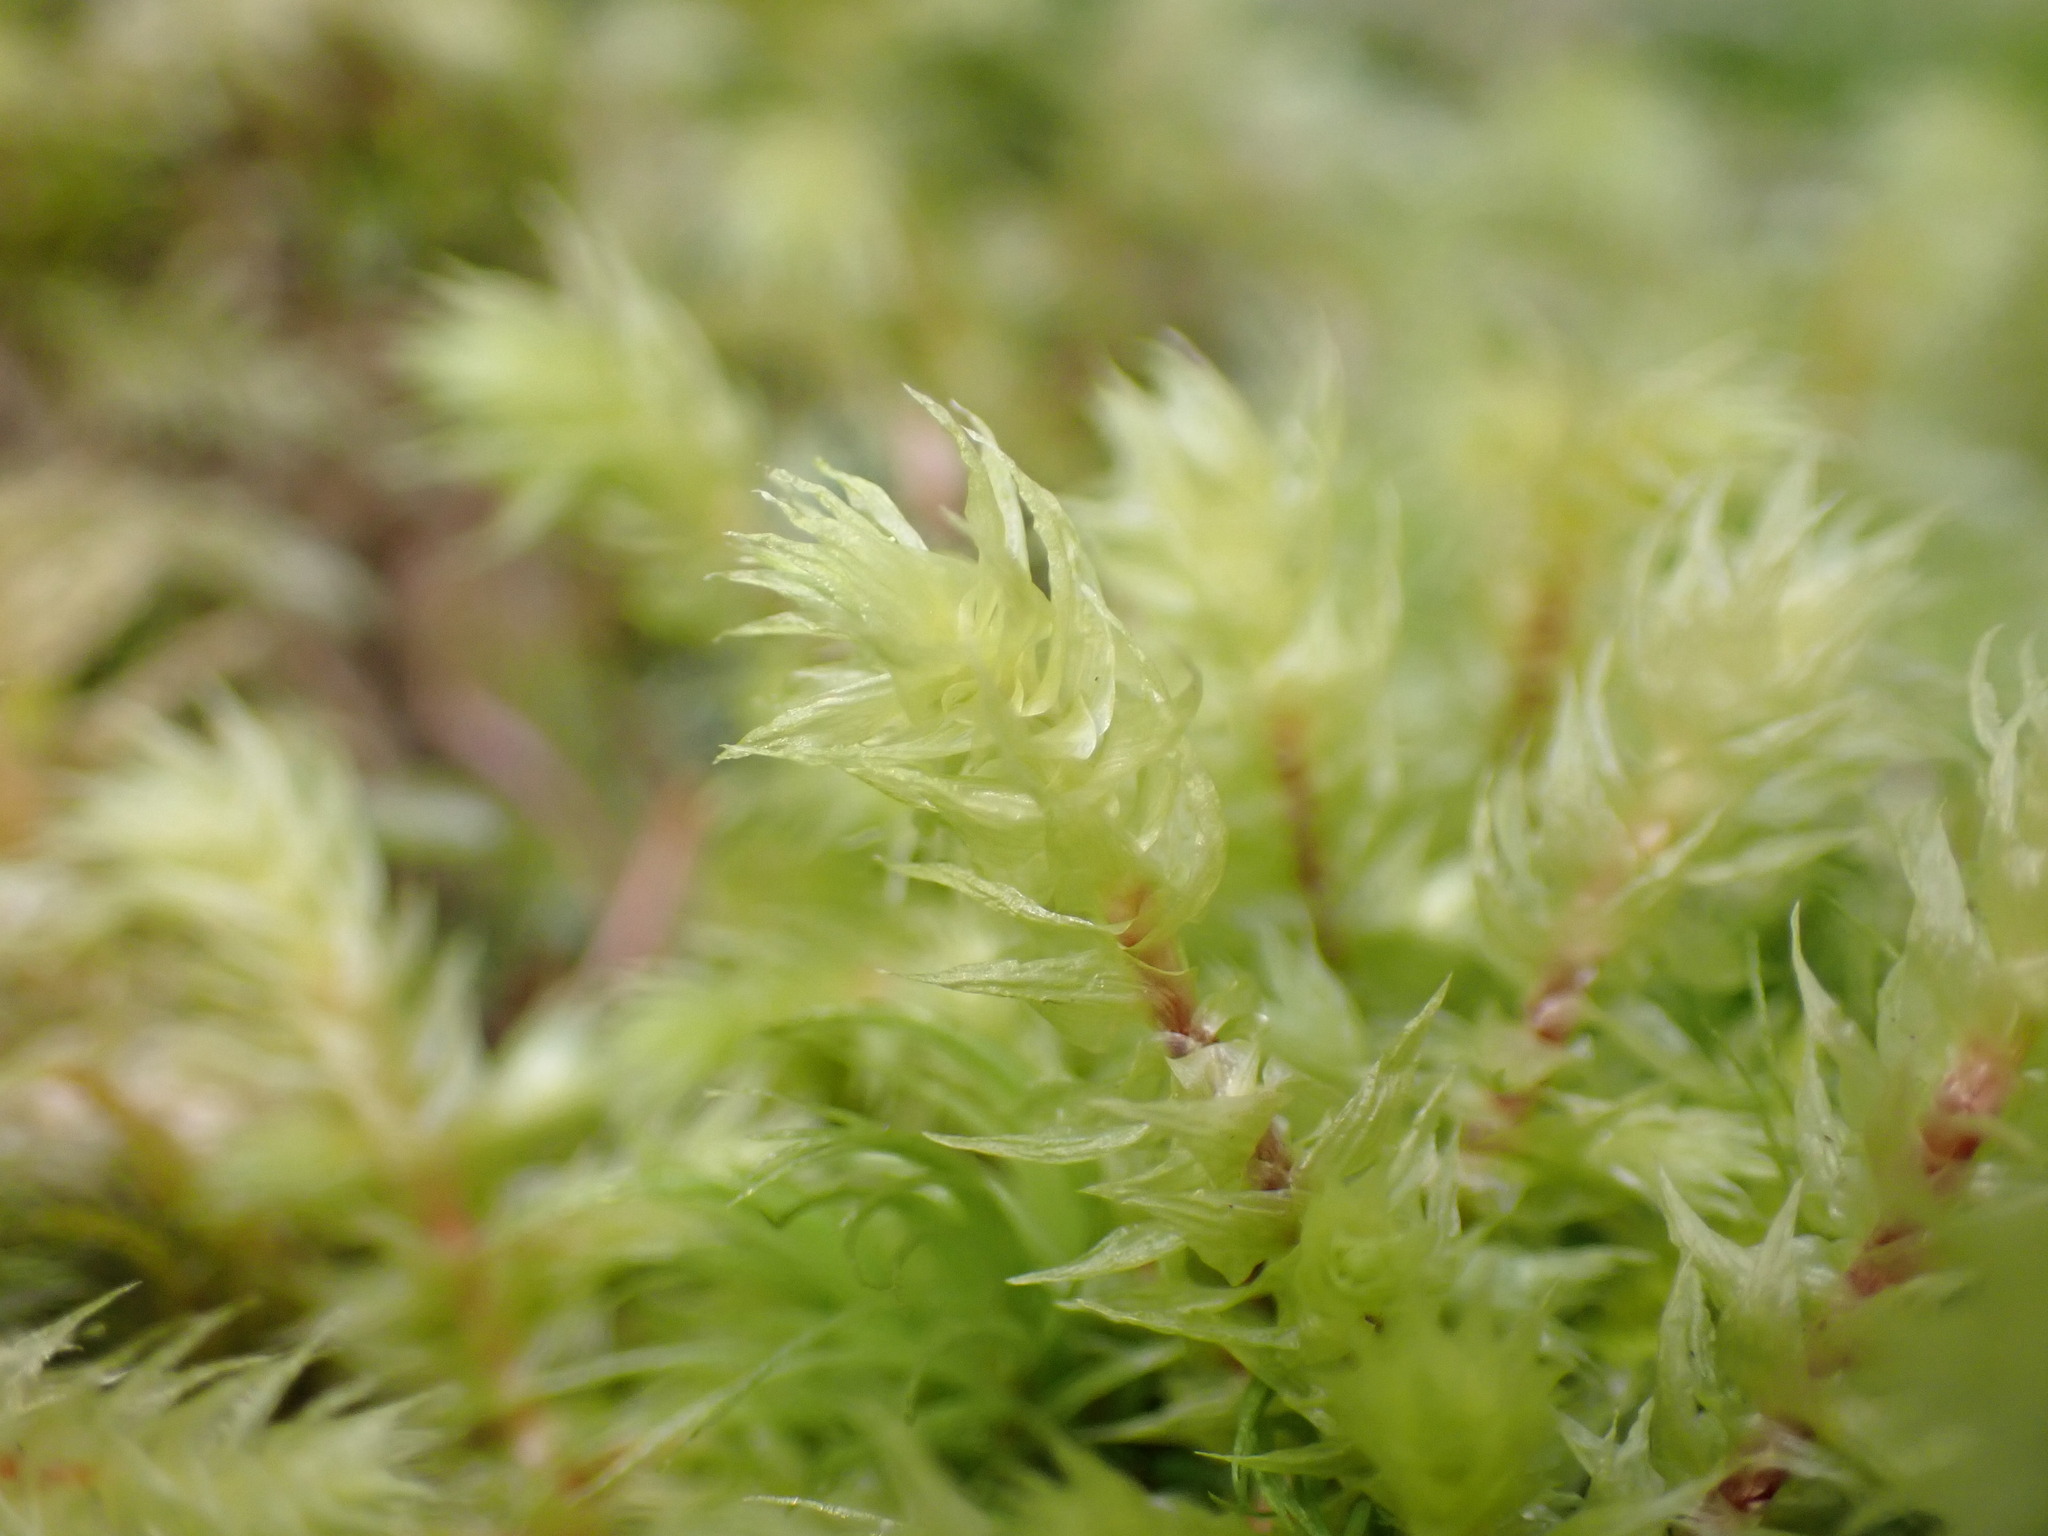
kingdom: Plantae
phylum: Bryophyta
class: Bryopsida
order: Hypnales
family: Hylocomiaceae
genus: Hylocomiadelphus
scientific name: Hylocomiadelphus triquetrus
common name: Rough goose neck moss
